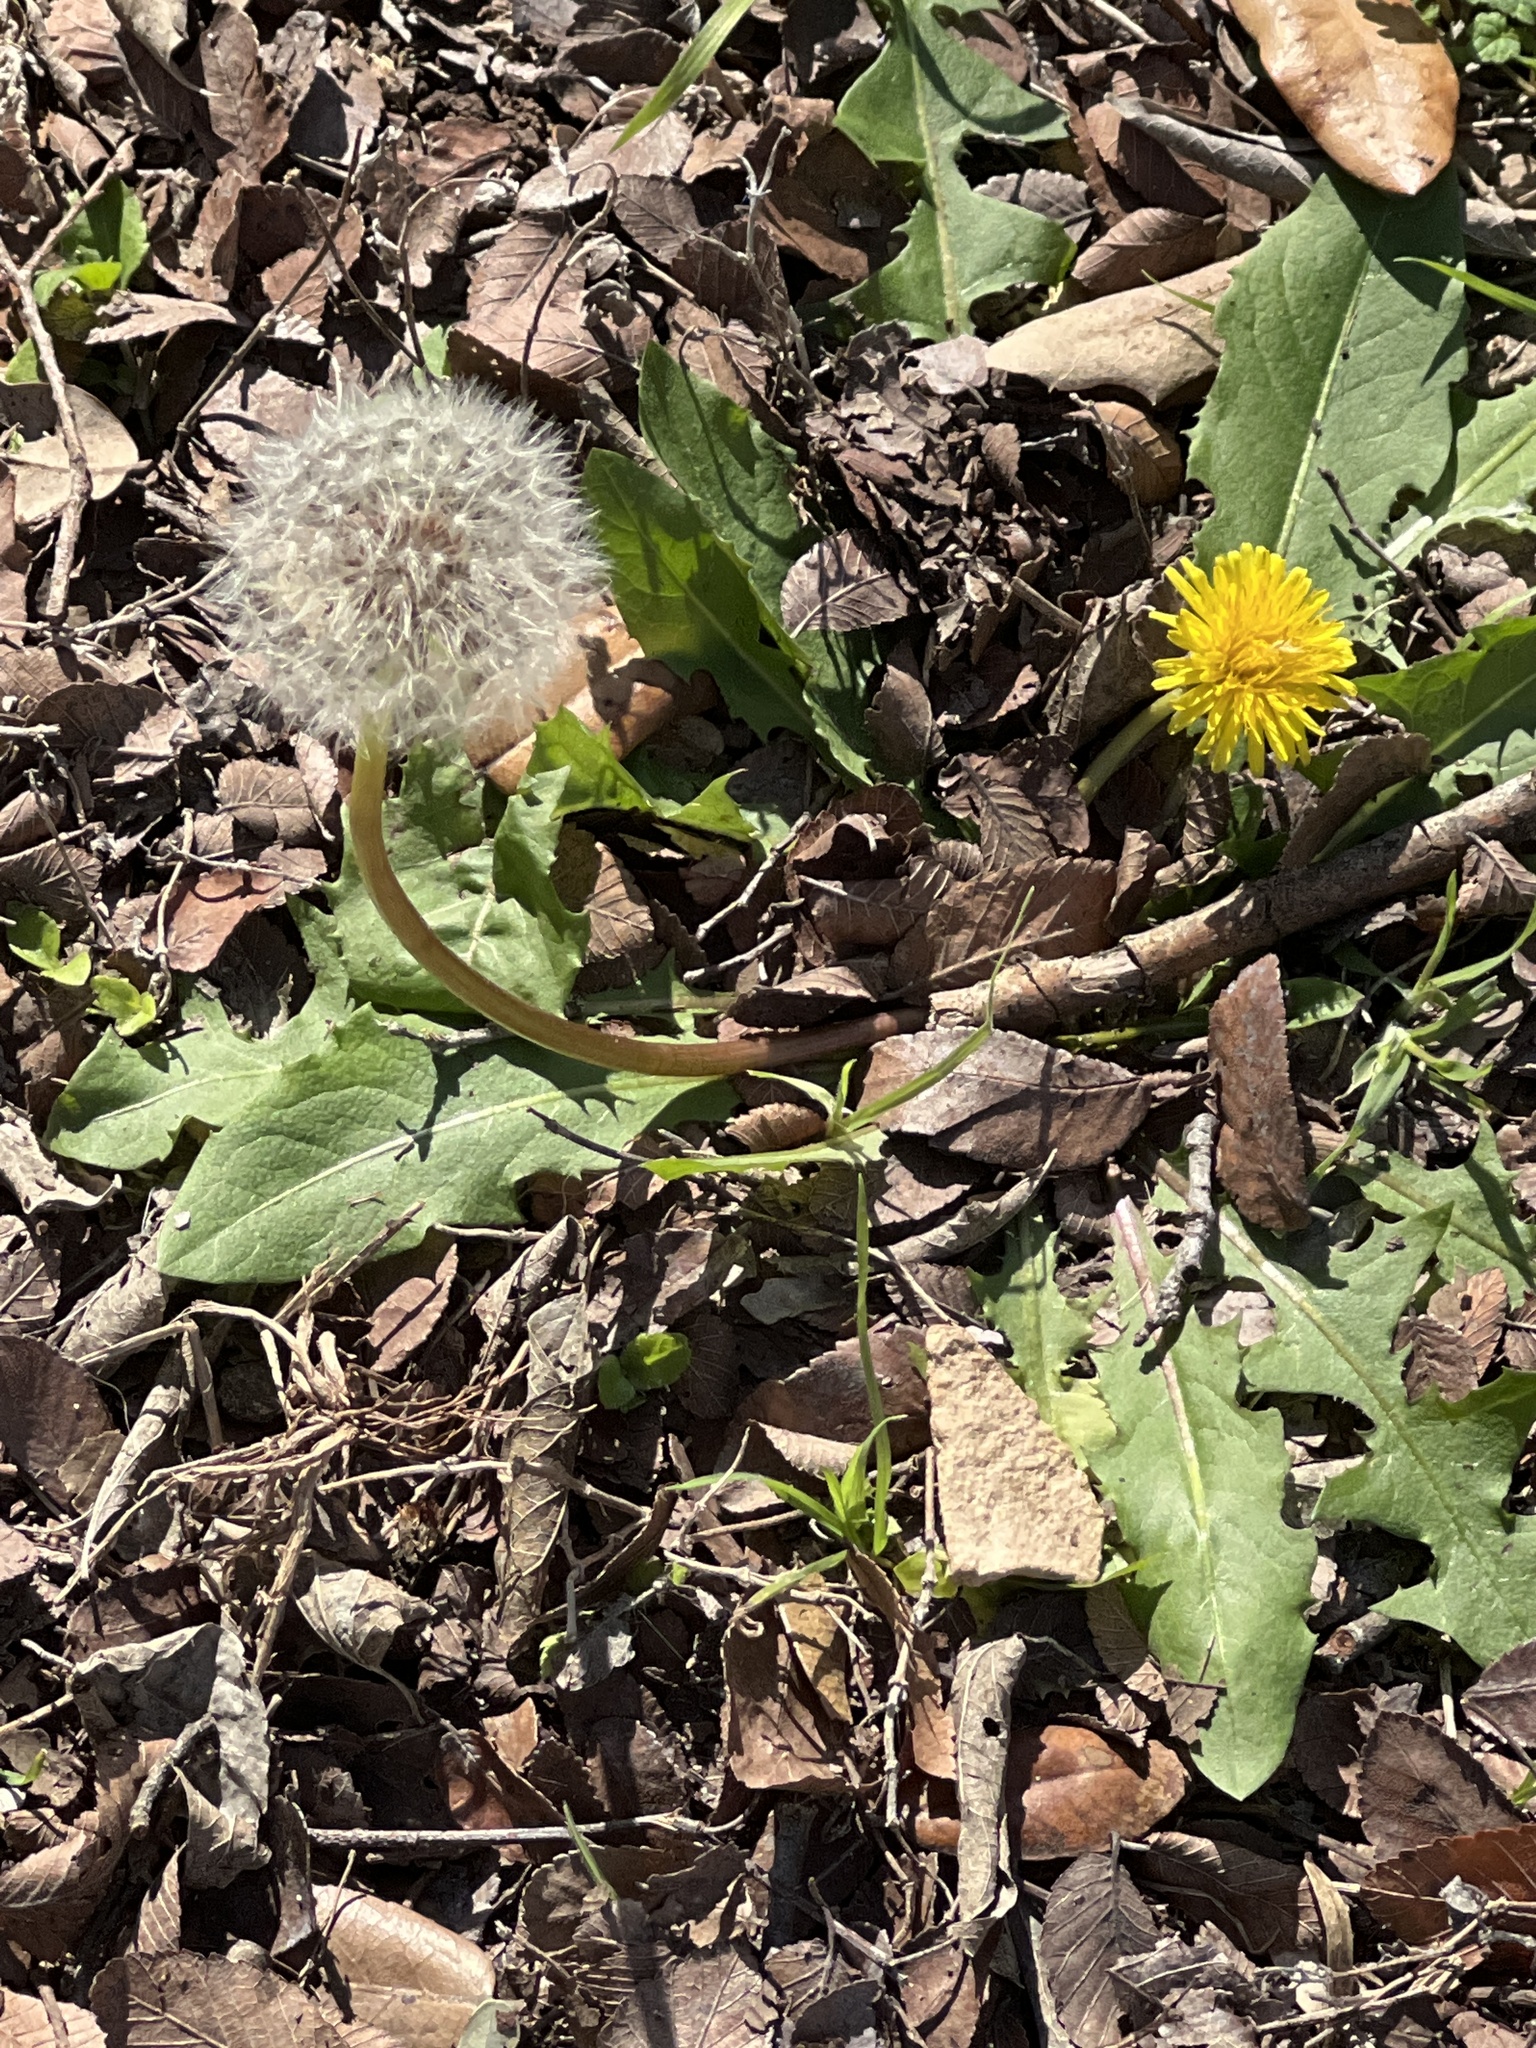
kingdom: Plantae
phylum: Tracheophyta
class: Magnoliopsida
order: Asterales
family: Asteraceae
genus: Taraxacum
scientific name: Taraxacum officinale
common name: Common dandelion
